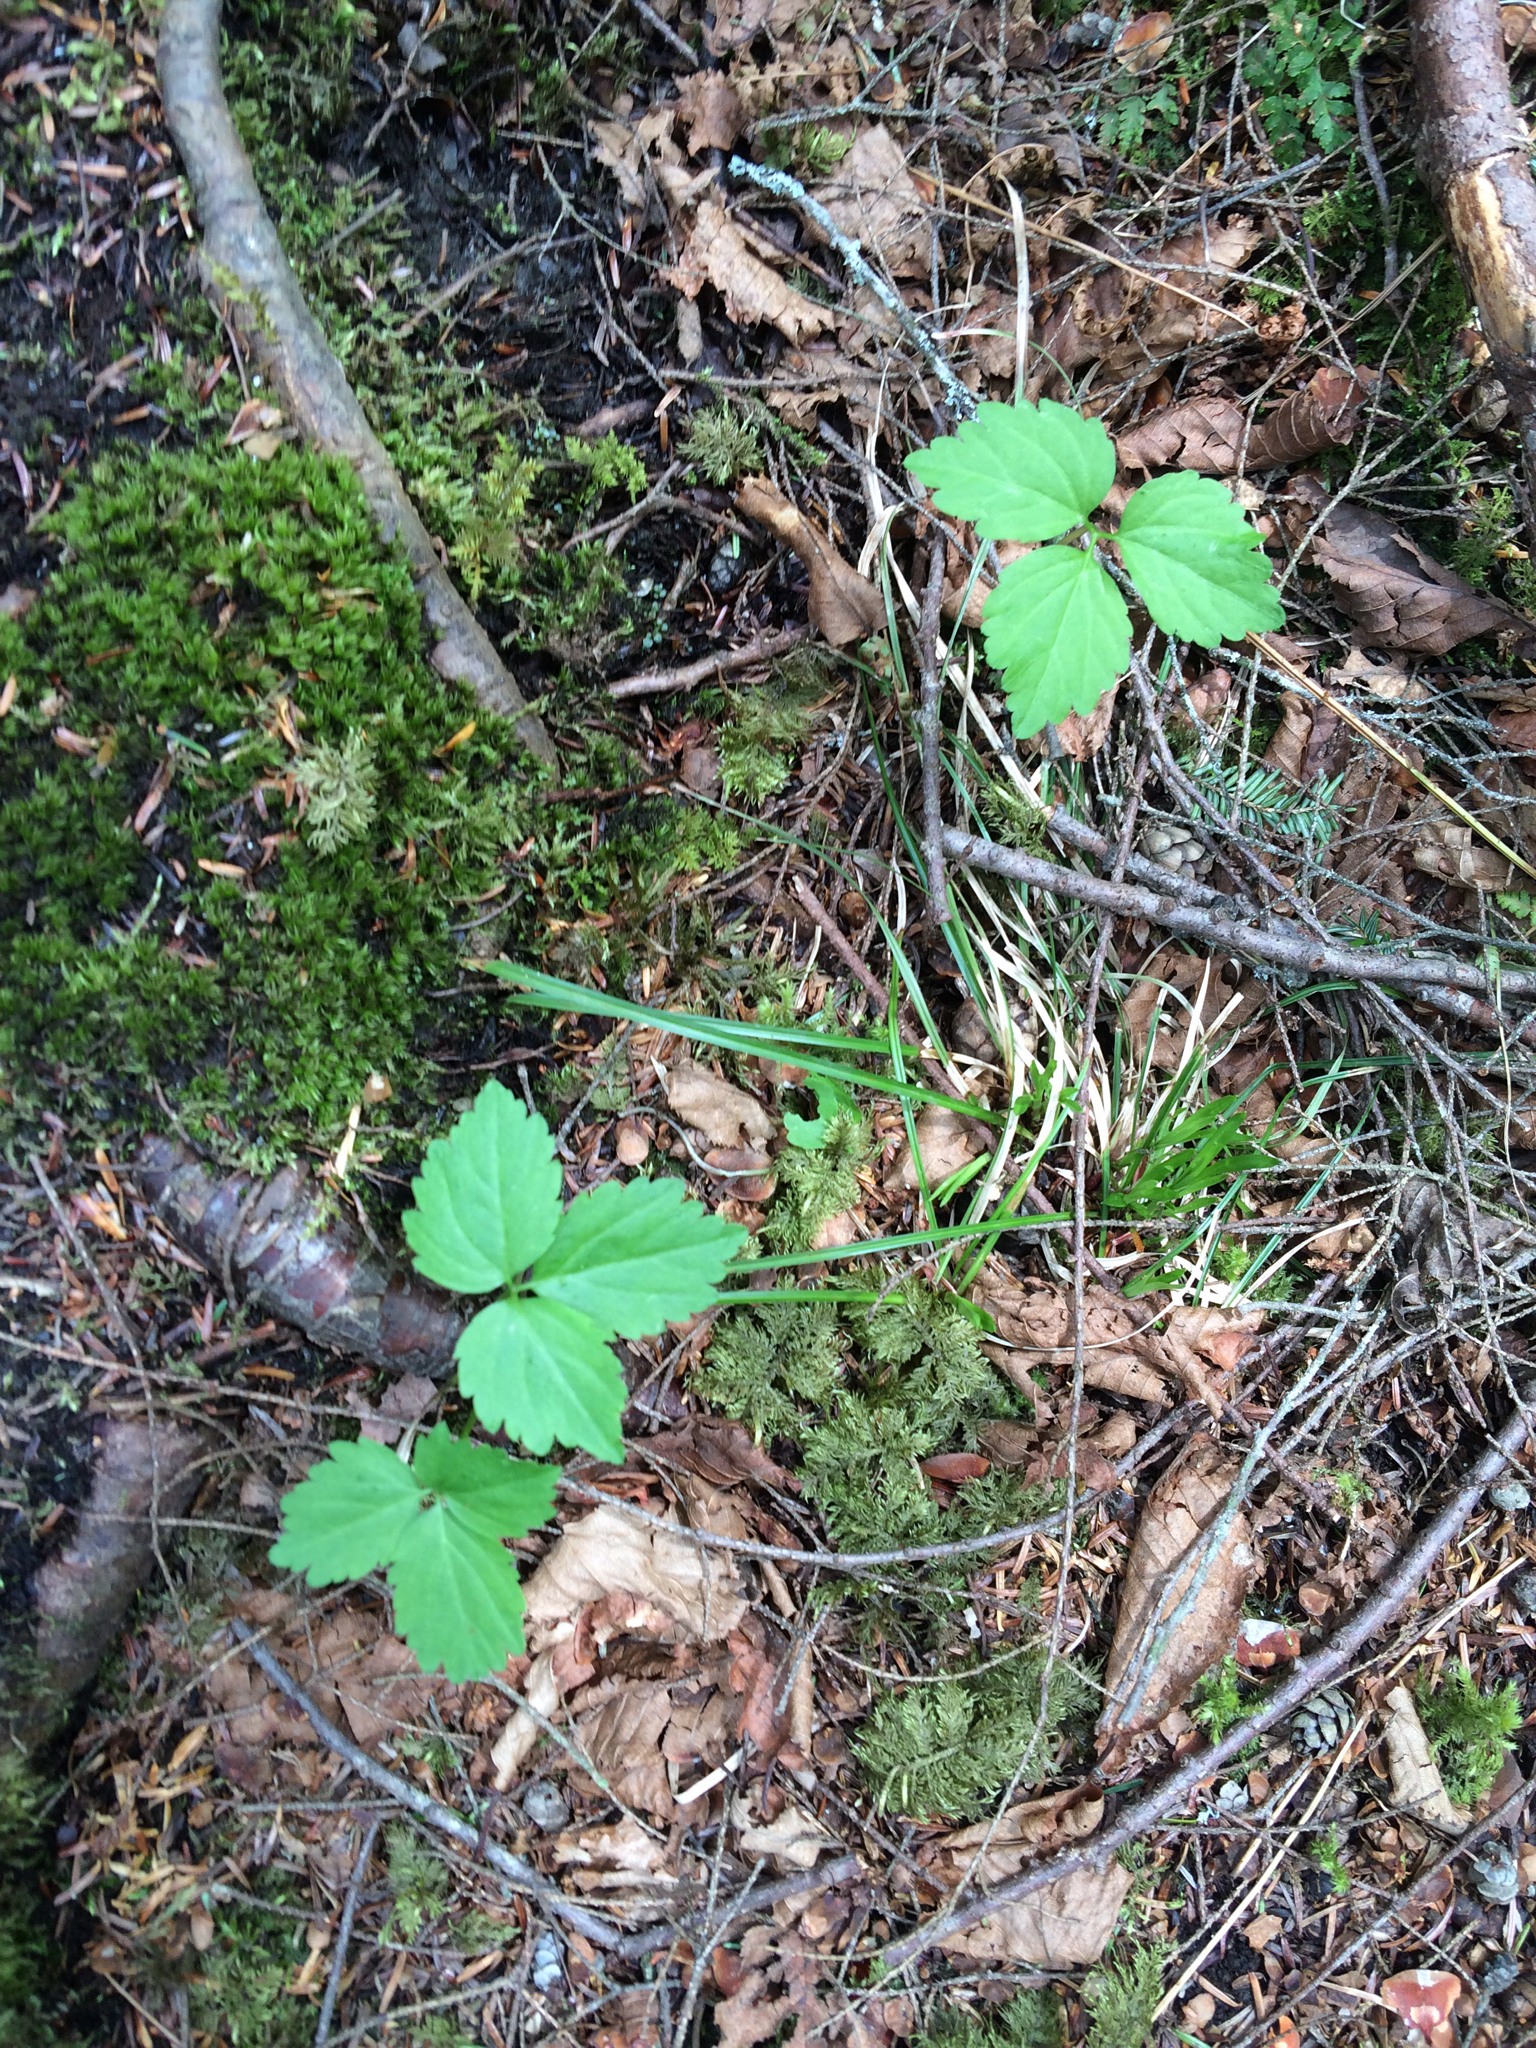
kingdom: Plantae
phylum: Tracheophyta
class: Magnoliopsida
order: Brassicales
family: Brassicaceae
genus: Cardamine
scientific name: Cardamine diphylla
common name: Broad-leaved toothwort
